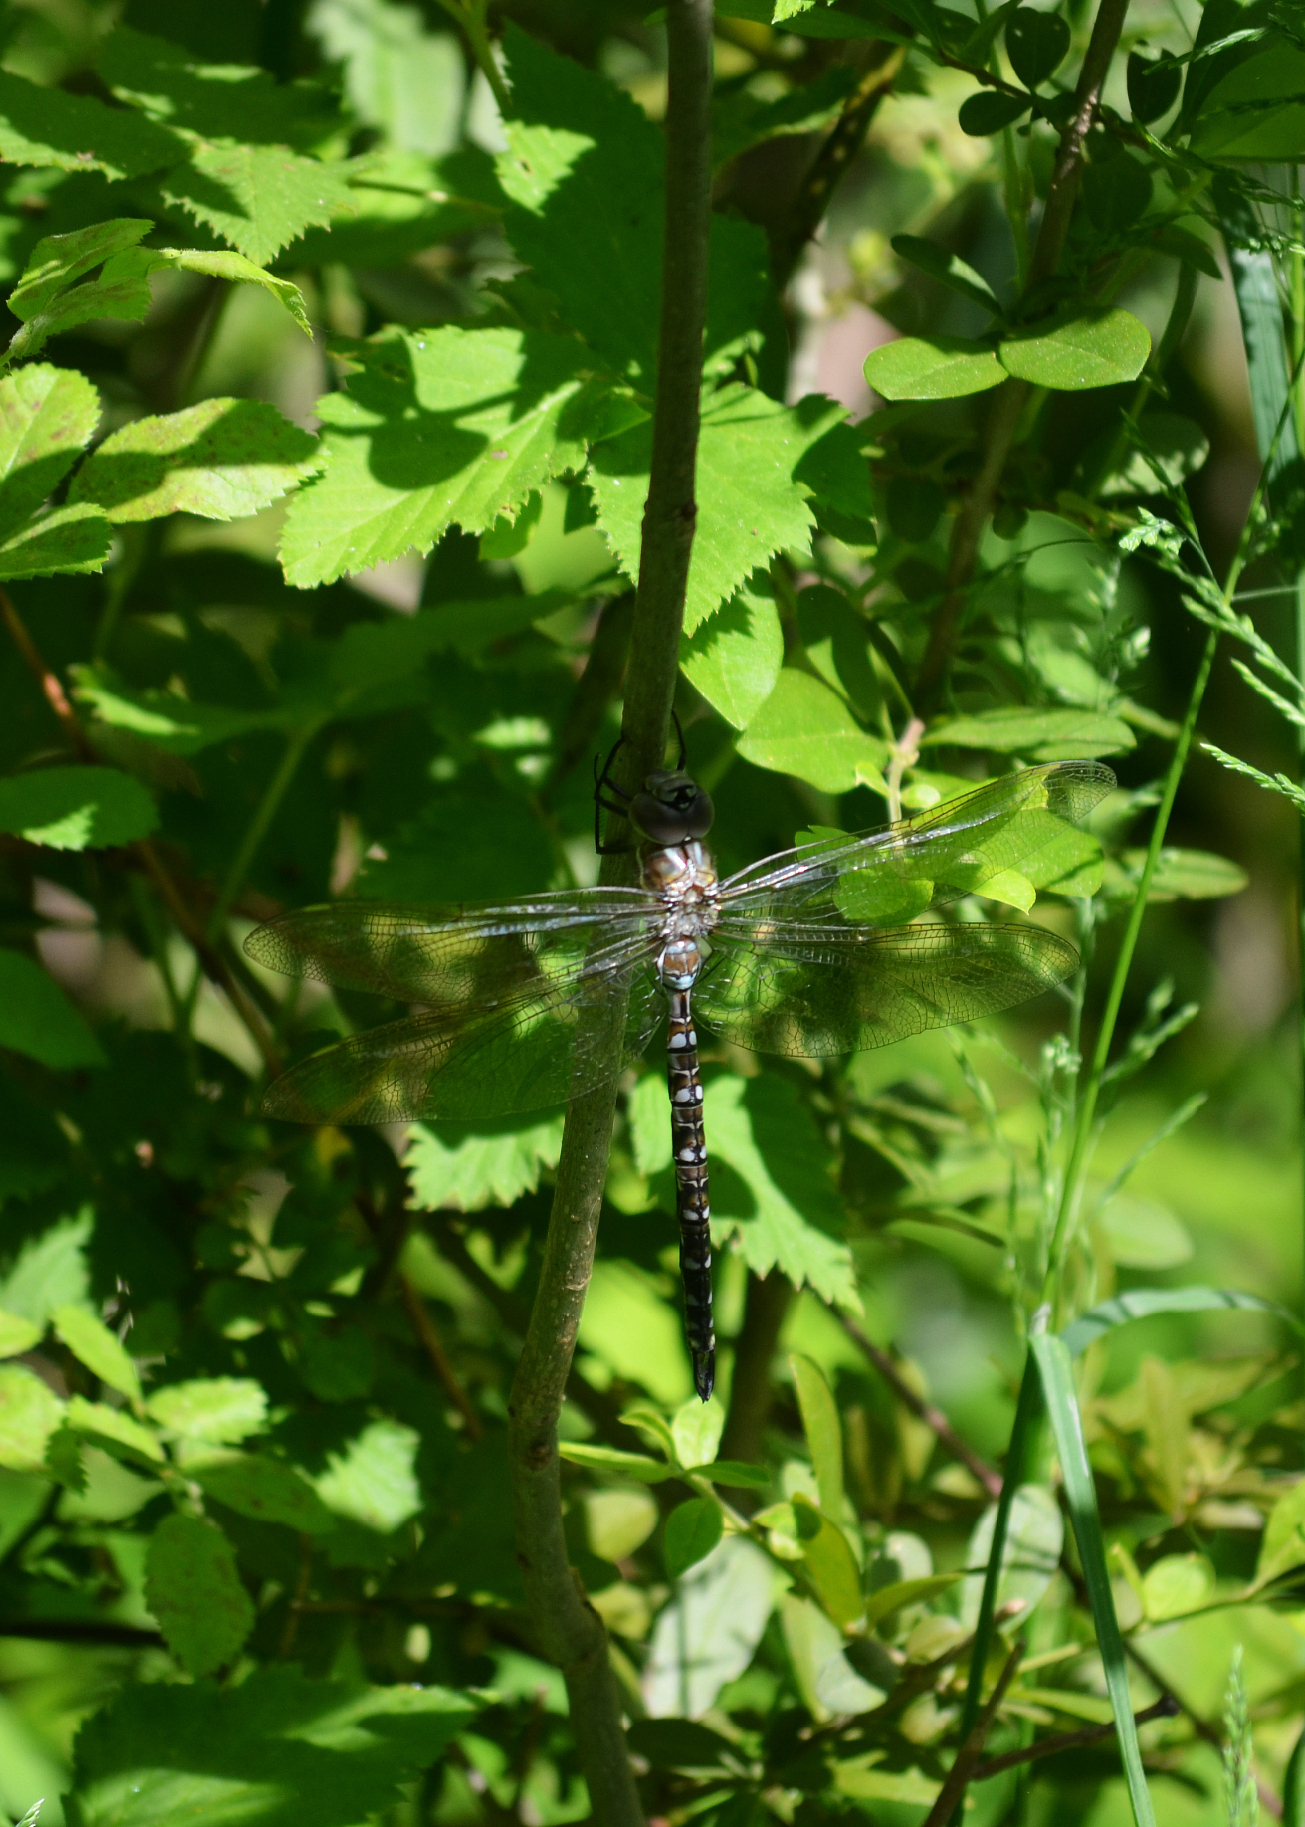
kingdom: Animalia
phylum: Arthropoda
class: Insecta
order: Odonata
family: Aeshnidae
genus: Rhionaeschna
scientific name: Rhionaeschna mutata
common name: Spatterdock darner
